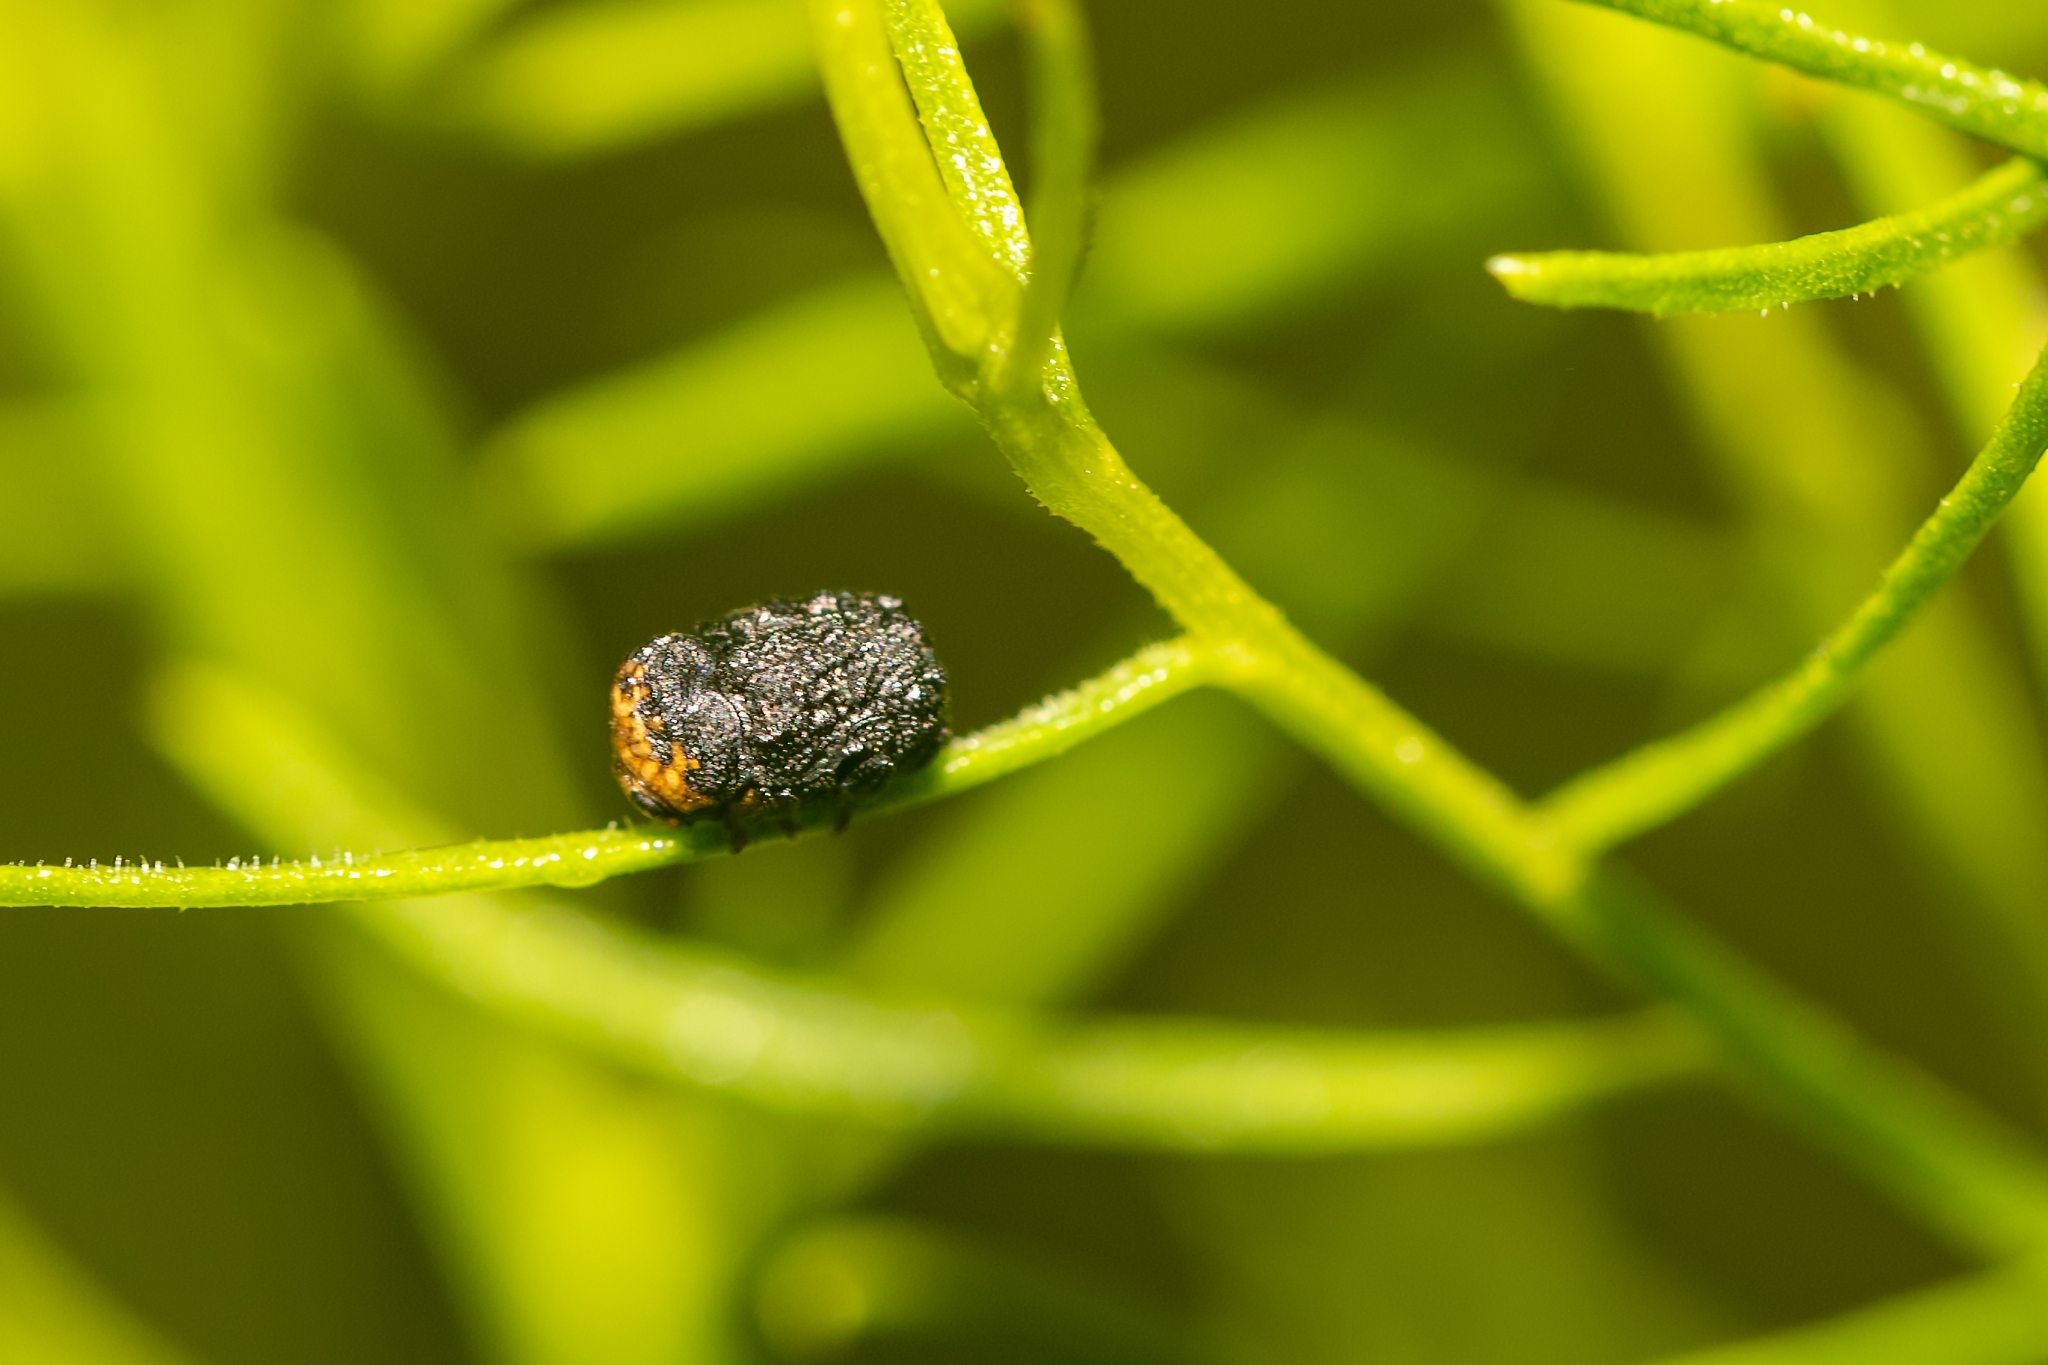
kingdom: Animalia
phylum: Arthropoda
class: Insecta
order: Coleoptera
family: Chrysomelidae
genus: Exema
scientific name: Exema neglecta
